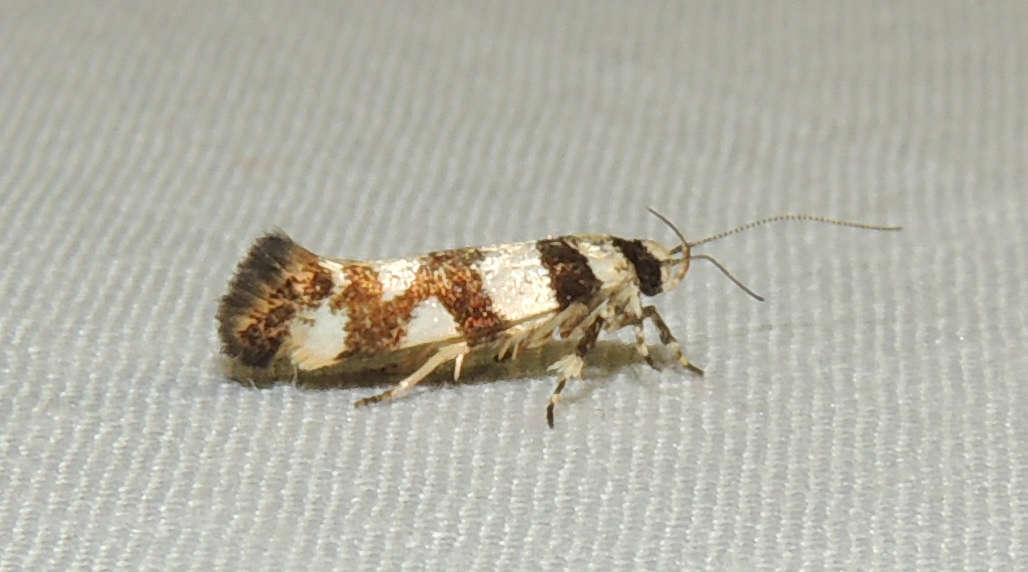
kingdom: Animalia
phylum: Arthropoda
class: Insecta
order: Lepidoptera
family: Cosmopterigidae
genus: Macrobathra
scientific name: Macrobathra desmotoma
